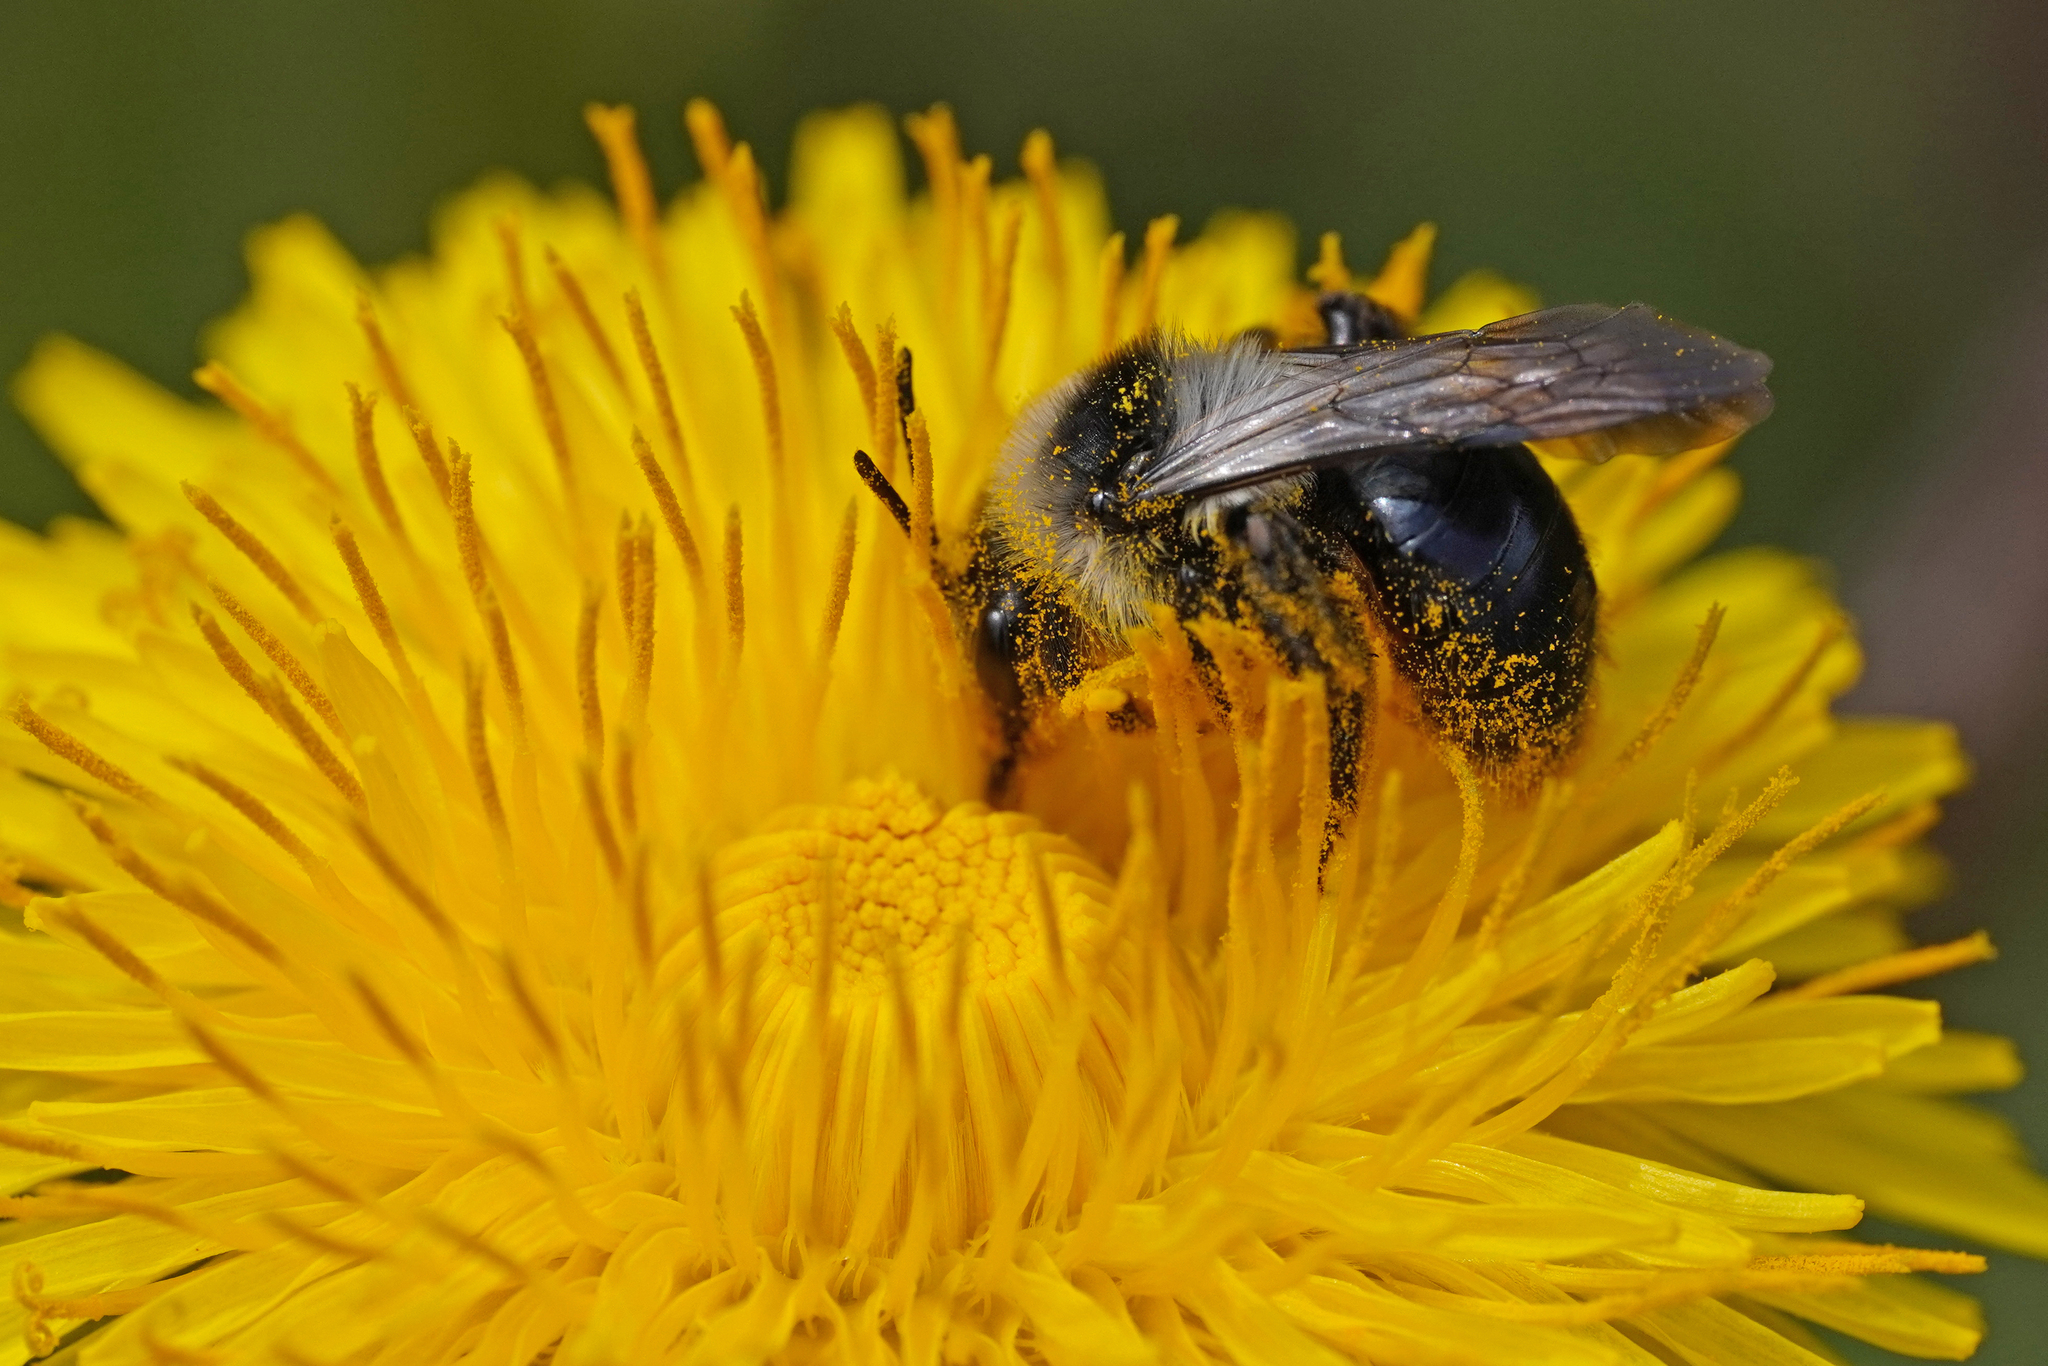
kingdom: Animalia
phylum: Arthropoda
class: Insecta
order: Hymenoptera
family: Andrenidae
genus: Andrena
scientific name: Andrena cineraria
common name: Ashy mining bee
